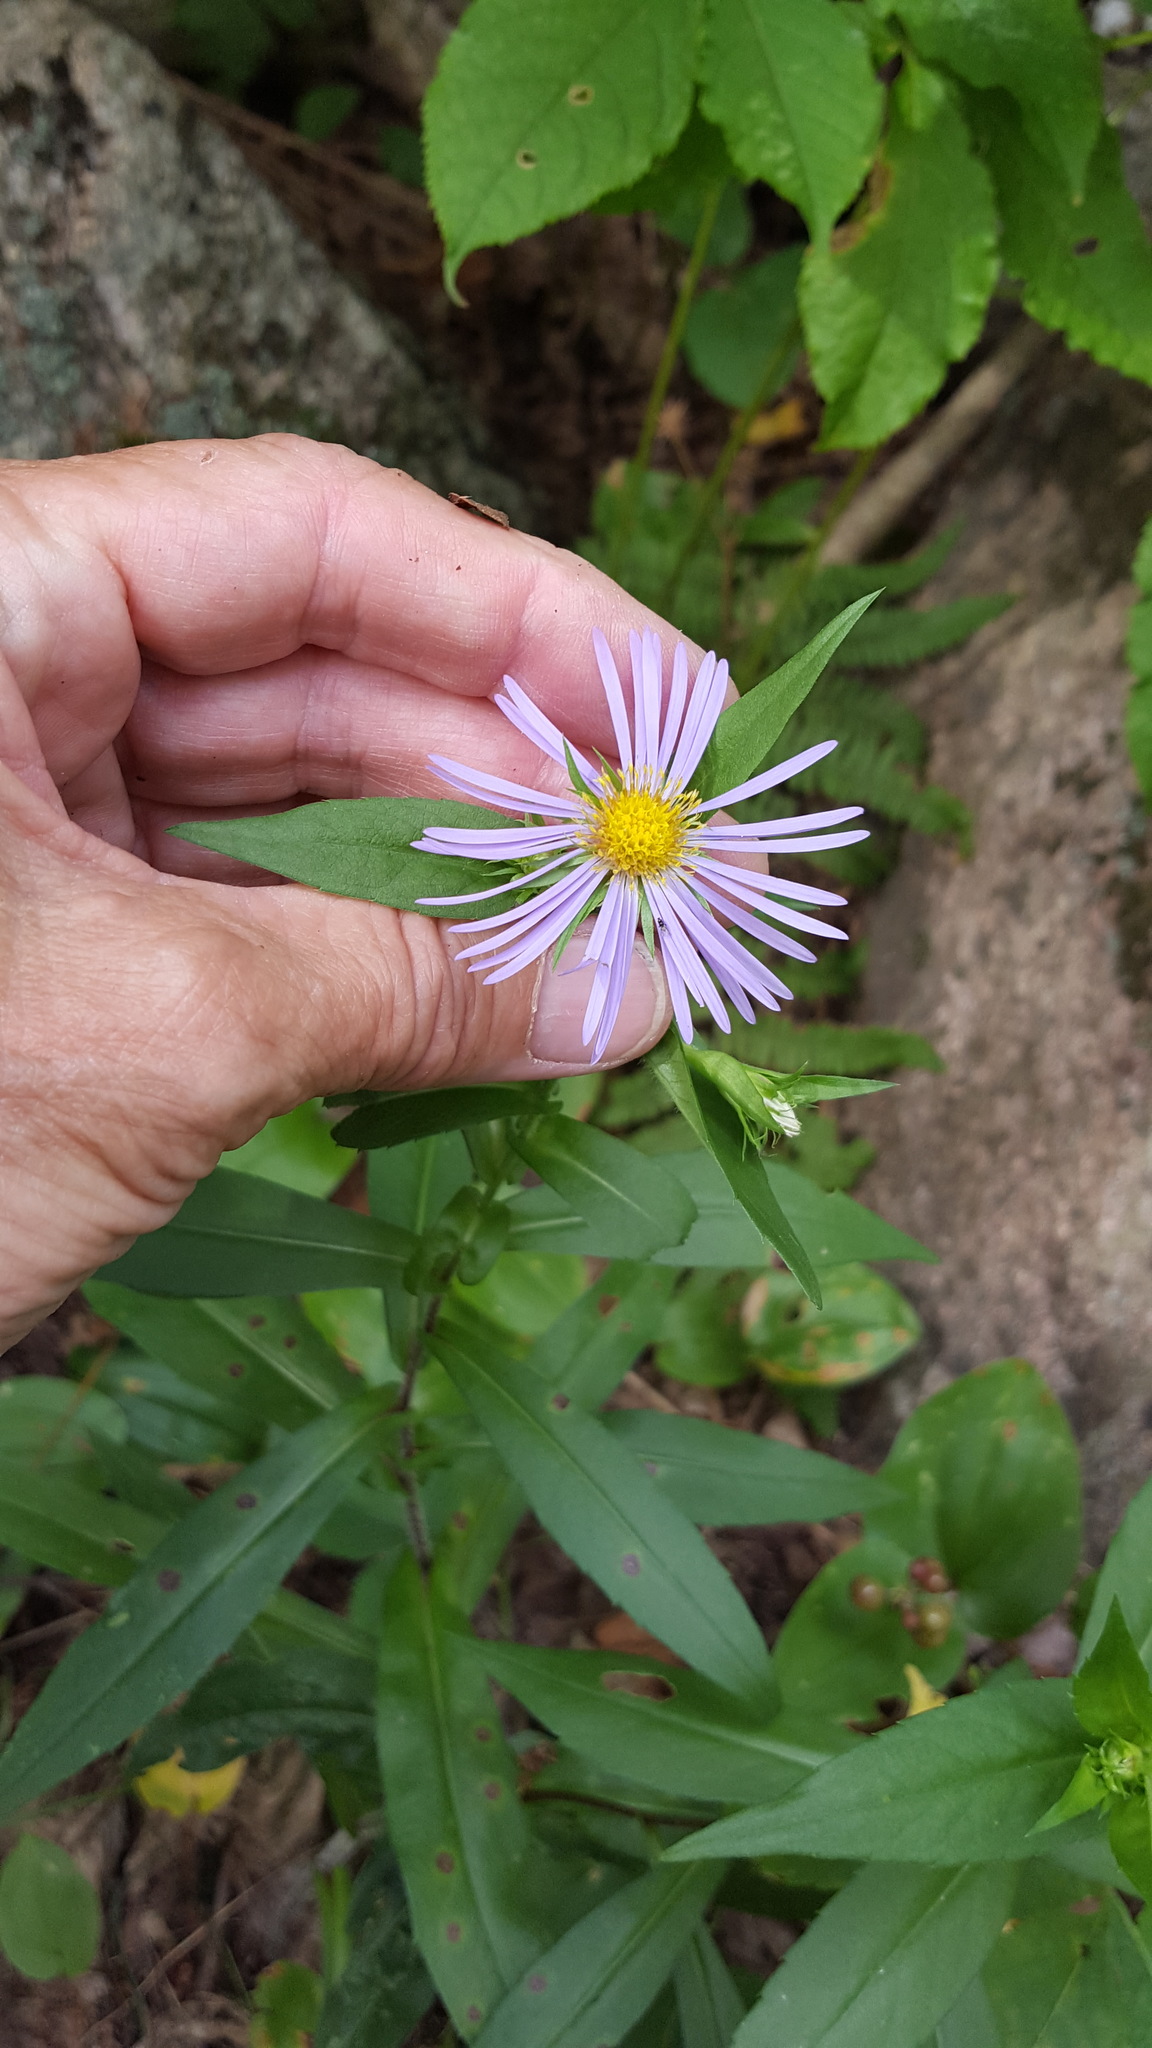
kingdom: Plantae
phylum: Tracheophyta
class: Magnoliopsida
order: Asterales
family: Asteraceae
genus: Symphyotrichum
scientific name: Symphyotrichum puniceum
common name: Bog aster
